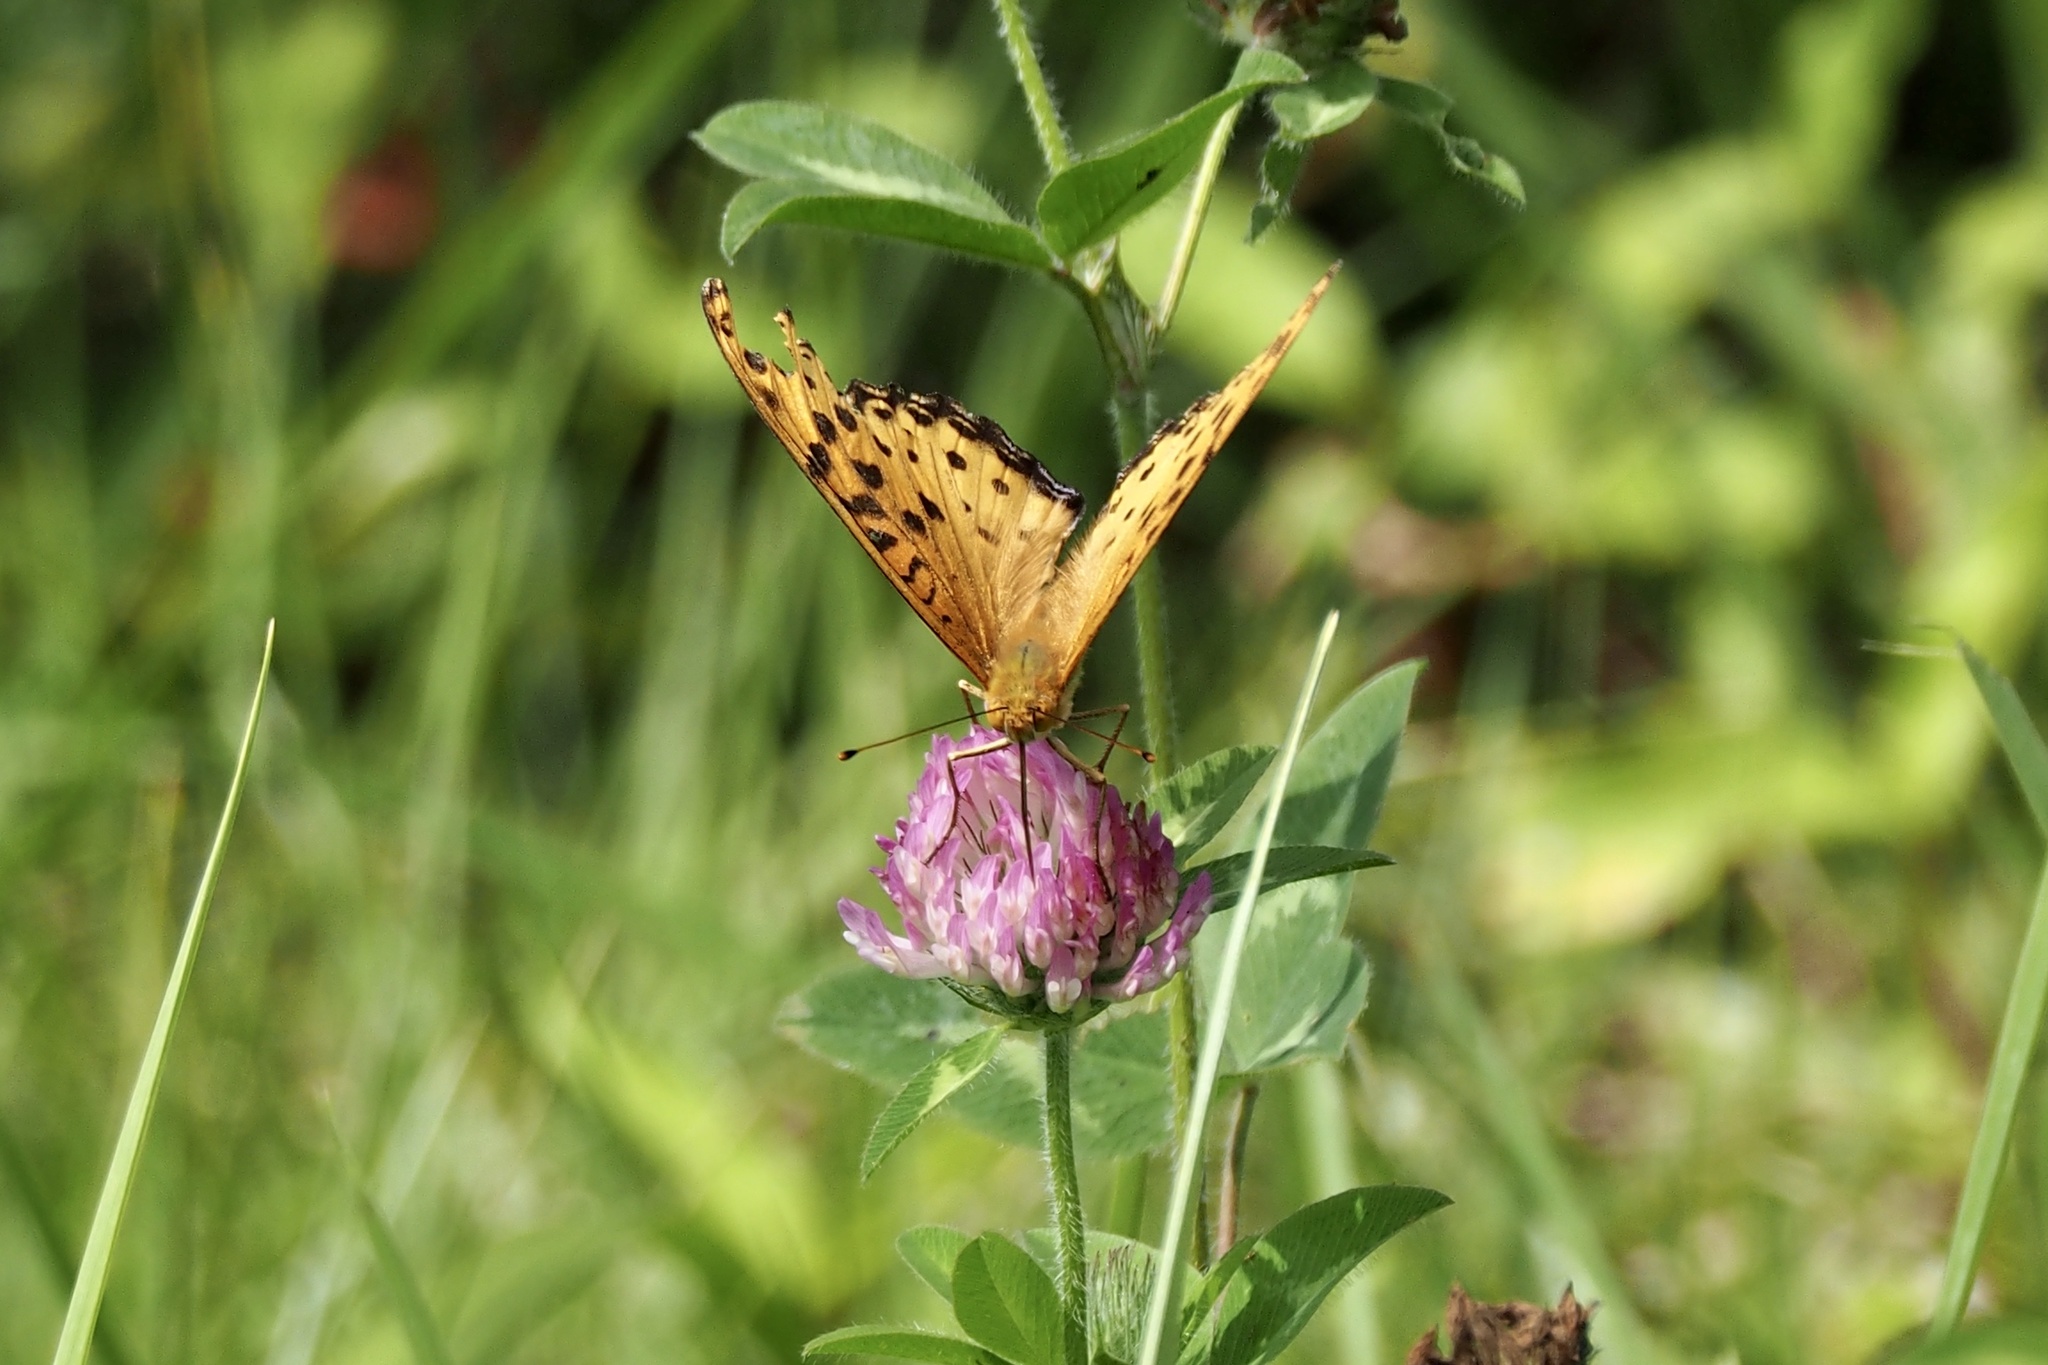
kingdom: Animalia
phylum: Arthropoda
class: Insecta
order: Lepidoptera
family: Nymphalidae
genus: Argynnis
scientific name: Argynnis hyperbius
